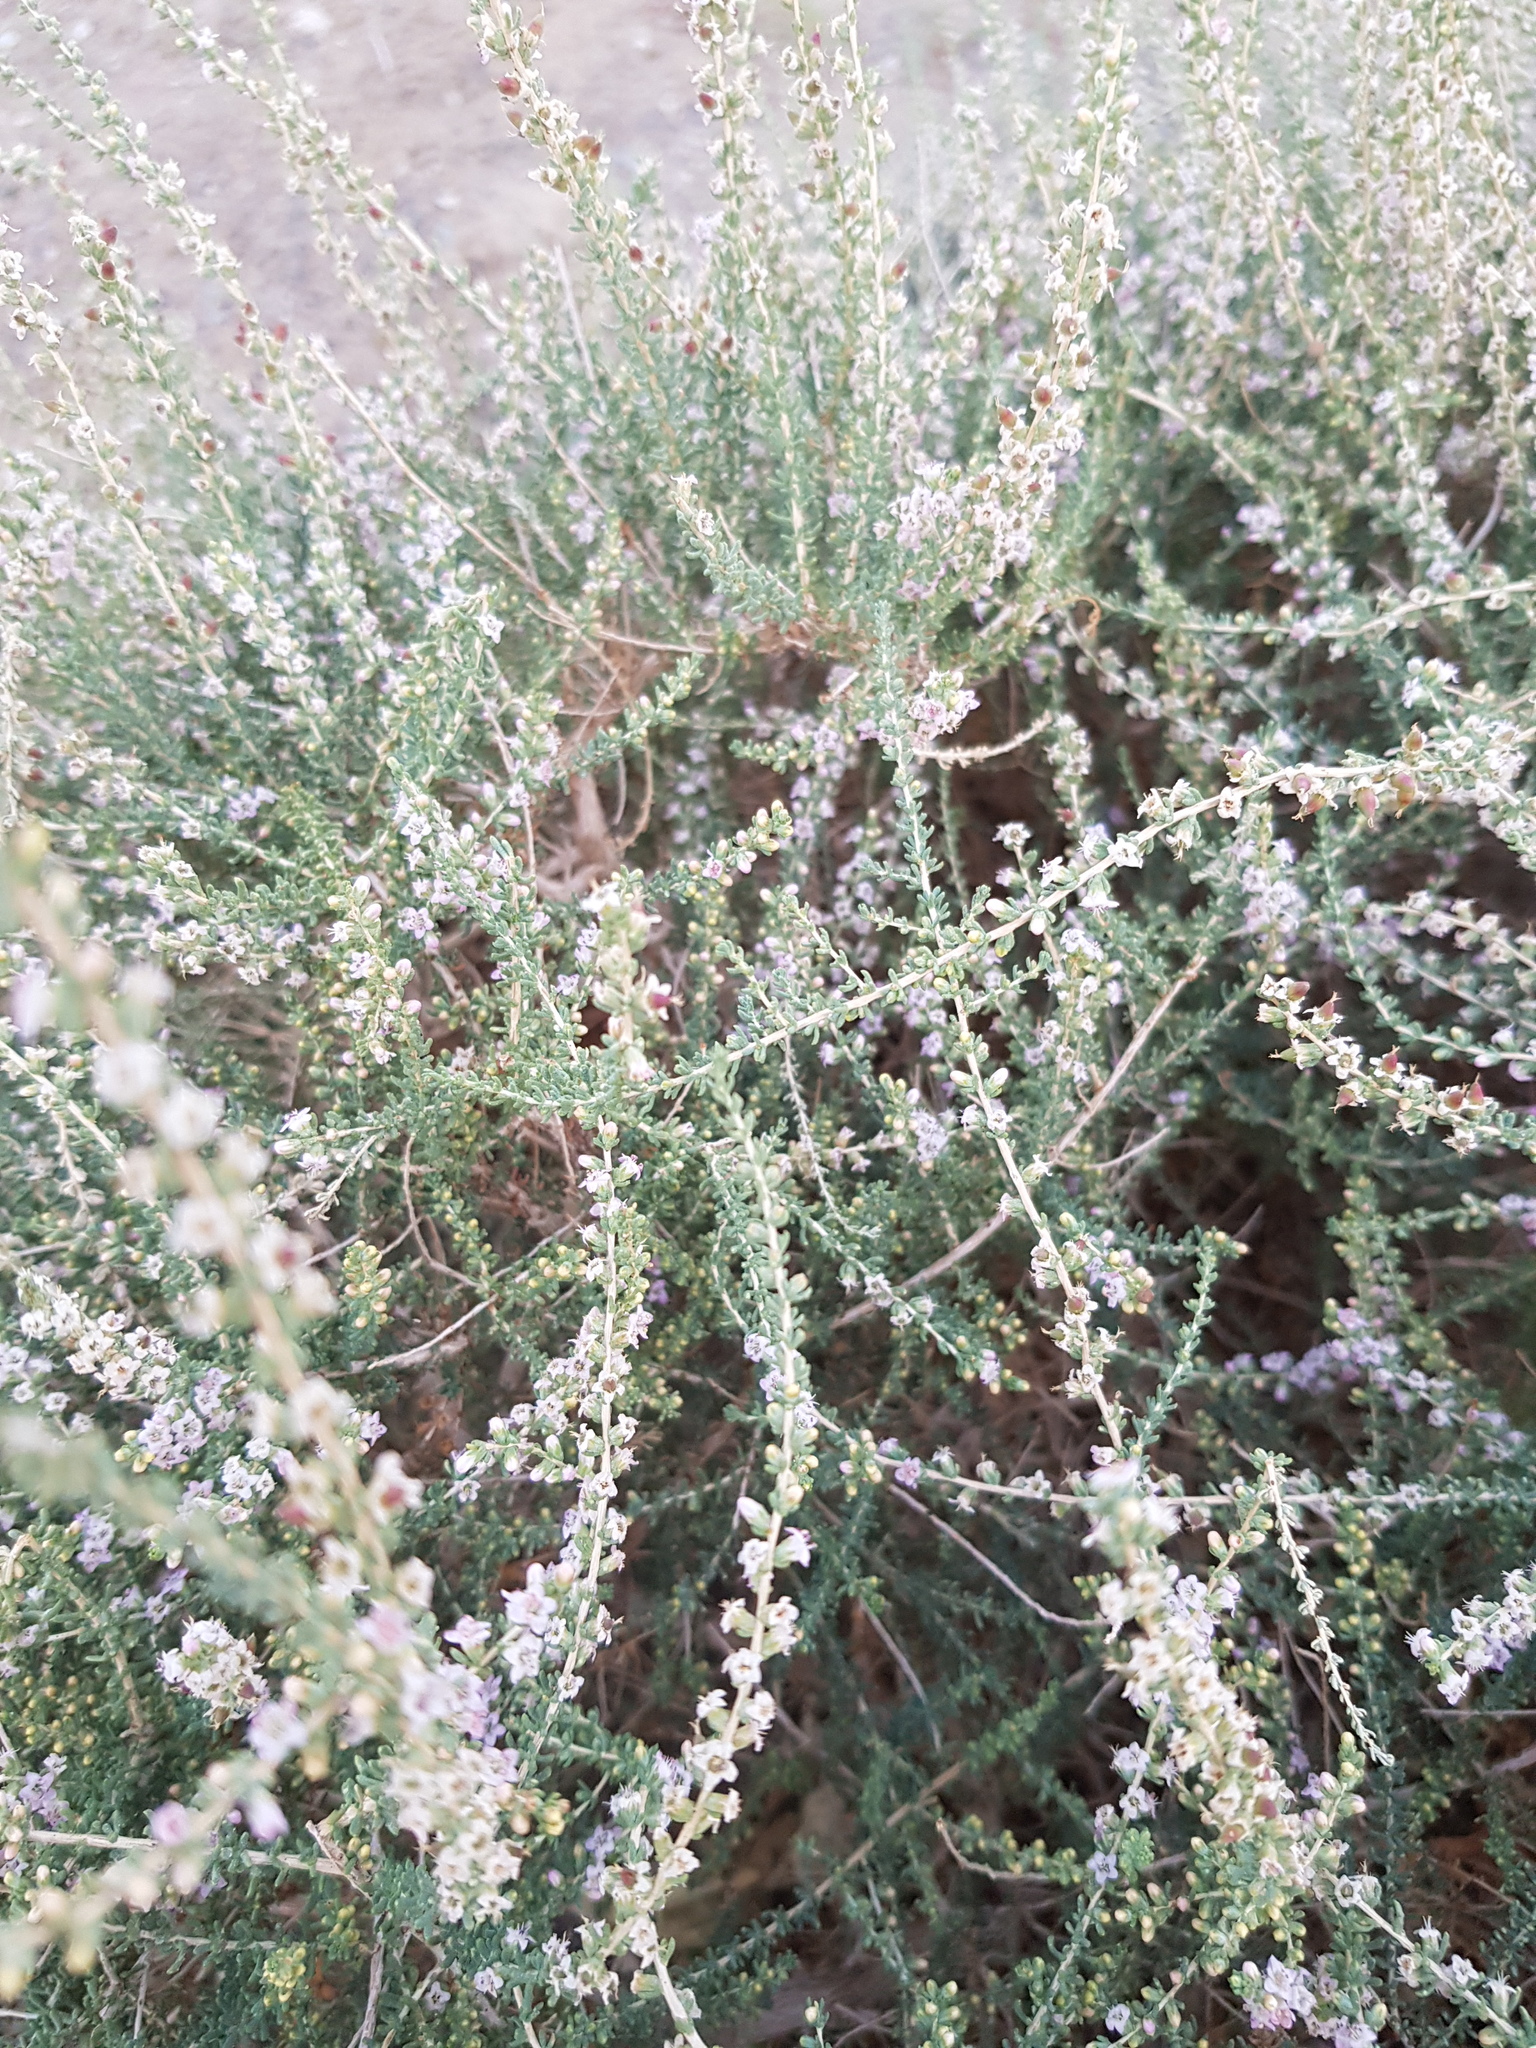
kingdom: Plantae
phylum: Tracheophyta
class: Magnoliopsida
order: Caryophyllales
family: Tamaricaceae
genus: Reaumuria
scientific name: Reaumuria songarica
